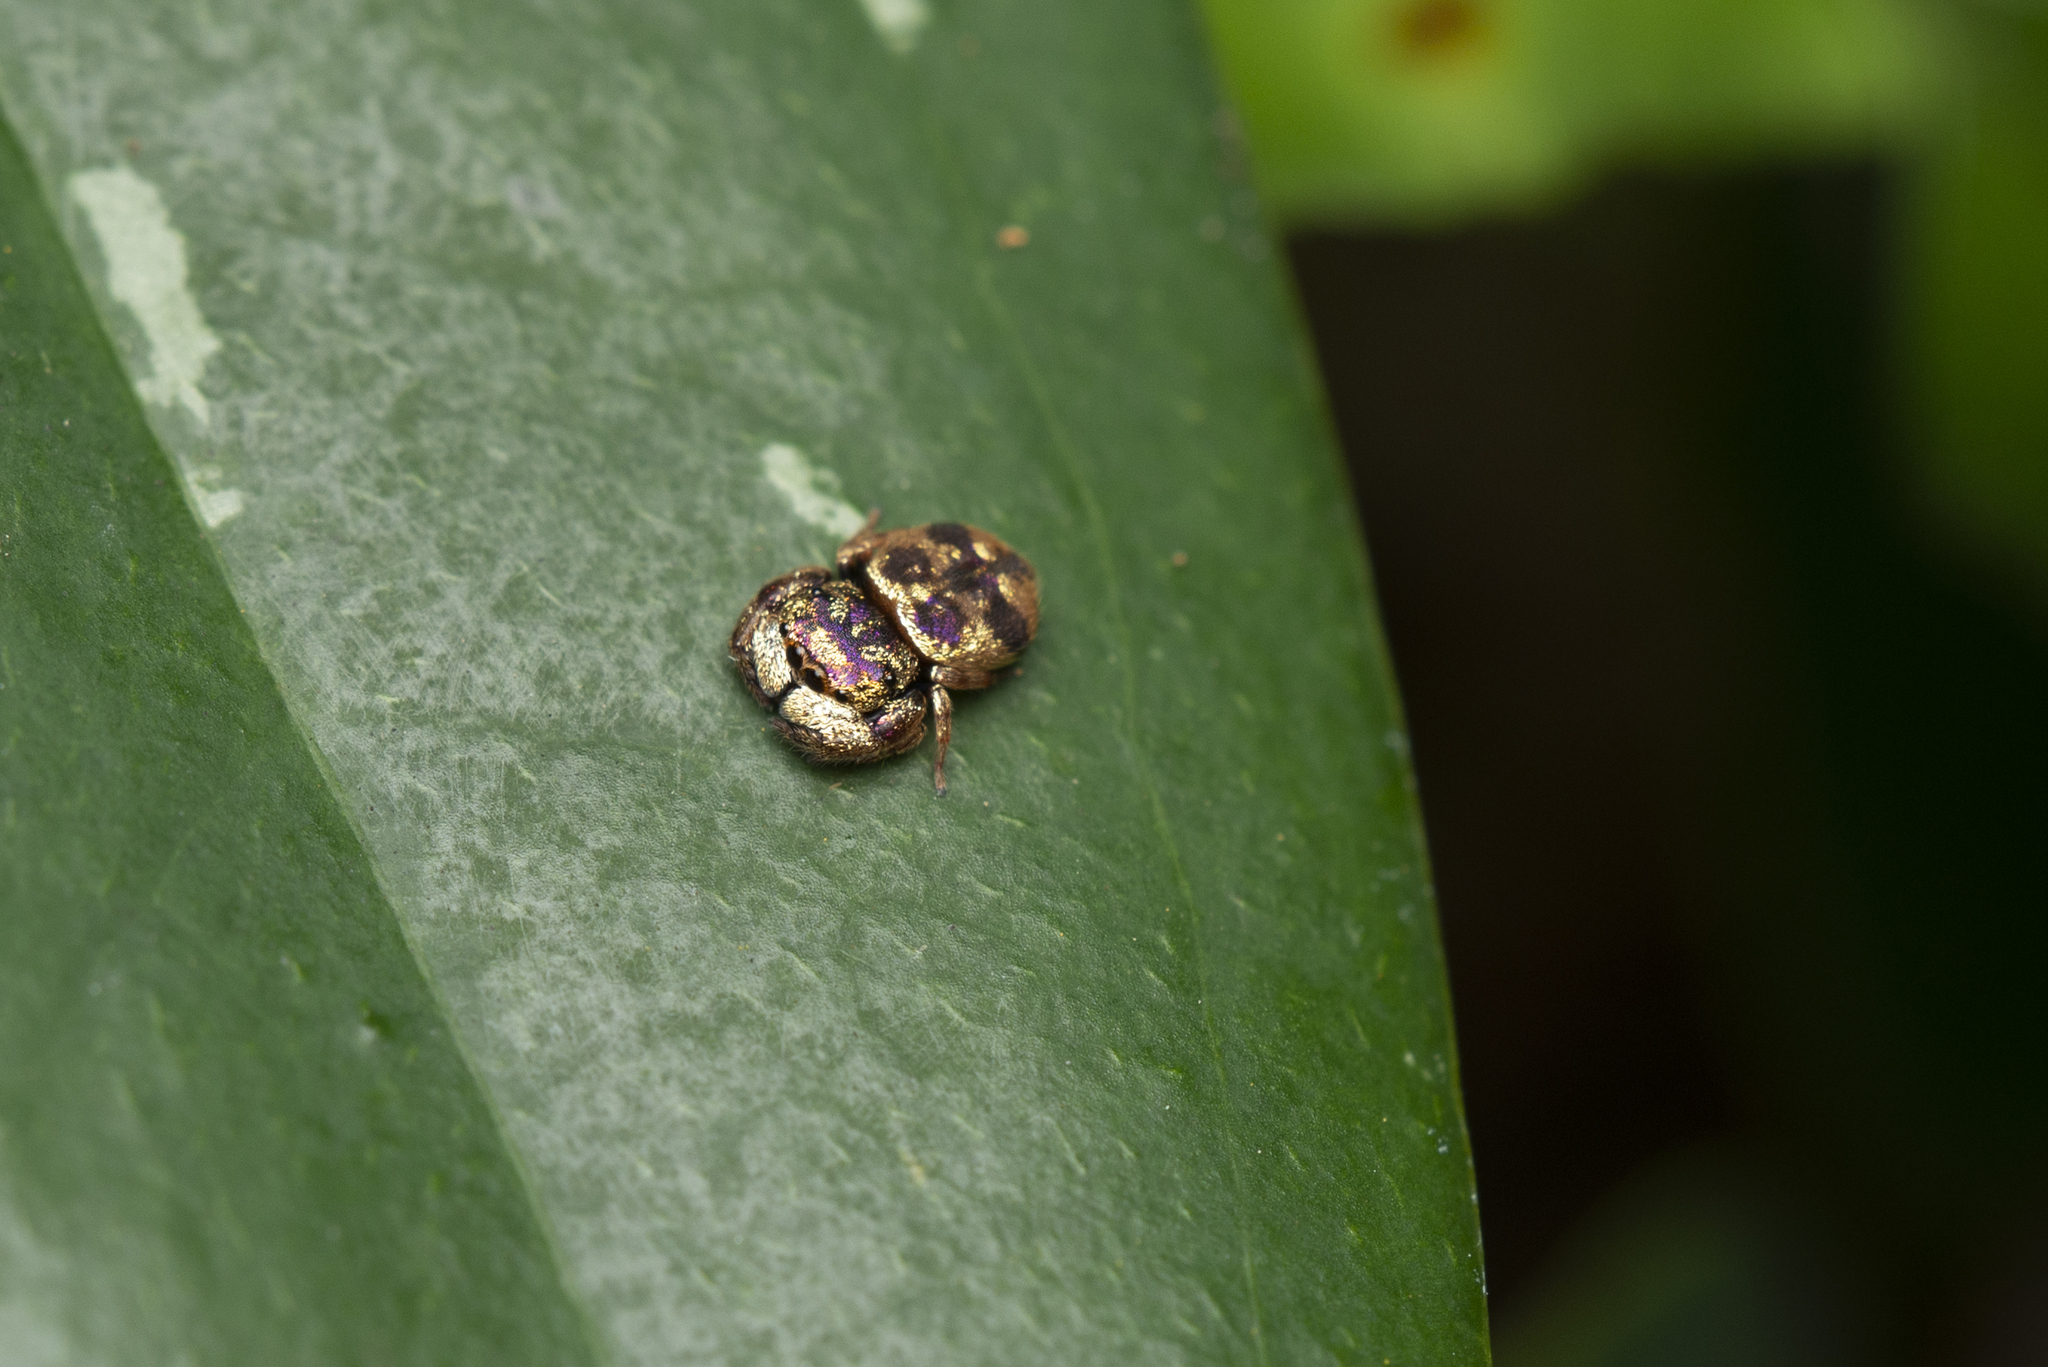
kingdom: Animalia
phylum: Arthropoda
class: Arachnida
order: Araneae
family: Salticidae
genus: Irura
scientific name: Irura bidenticulata
